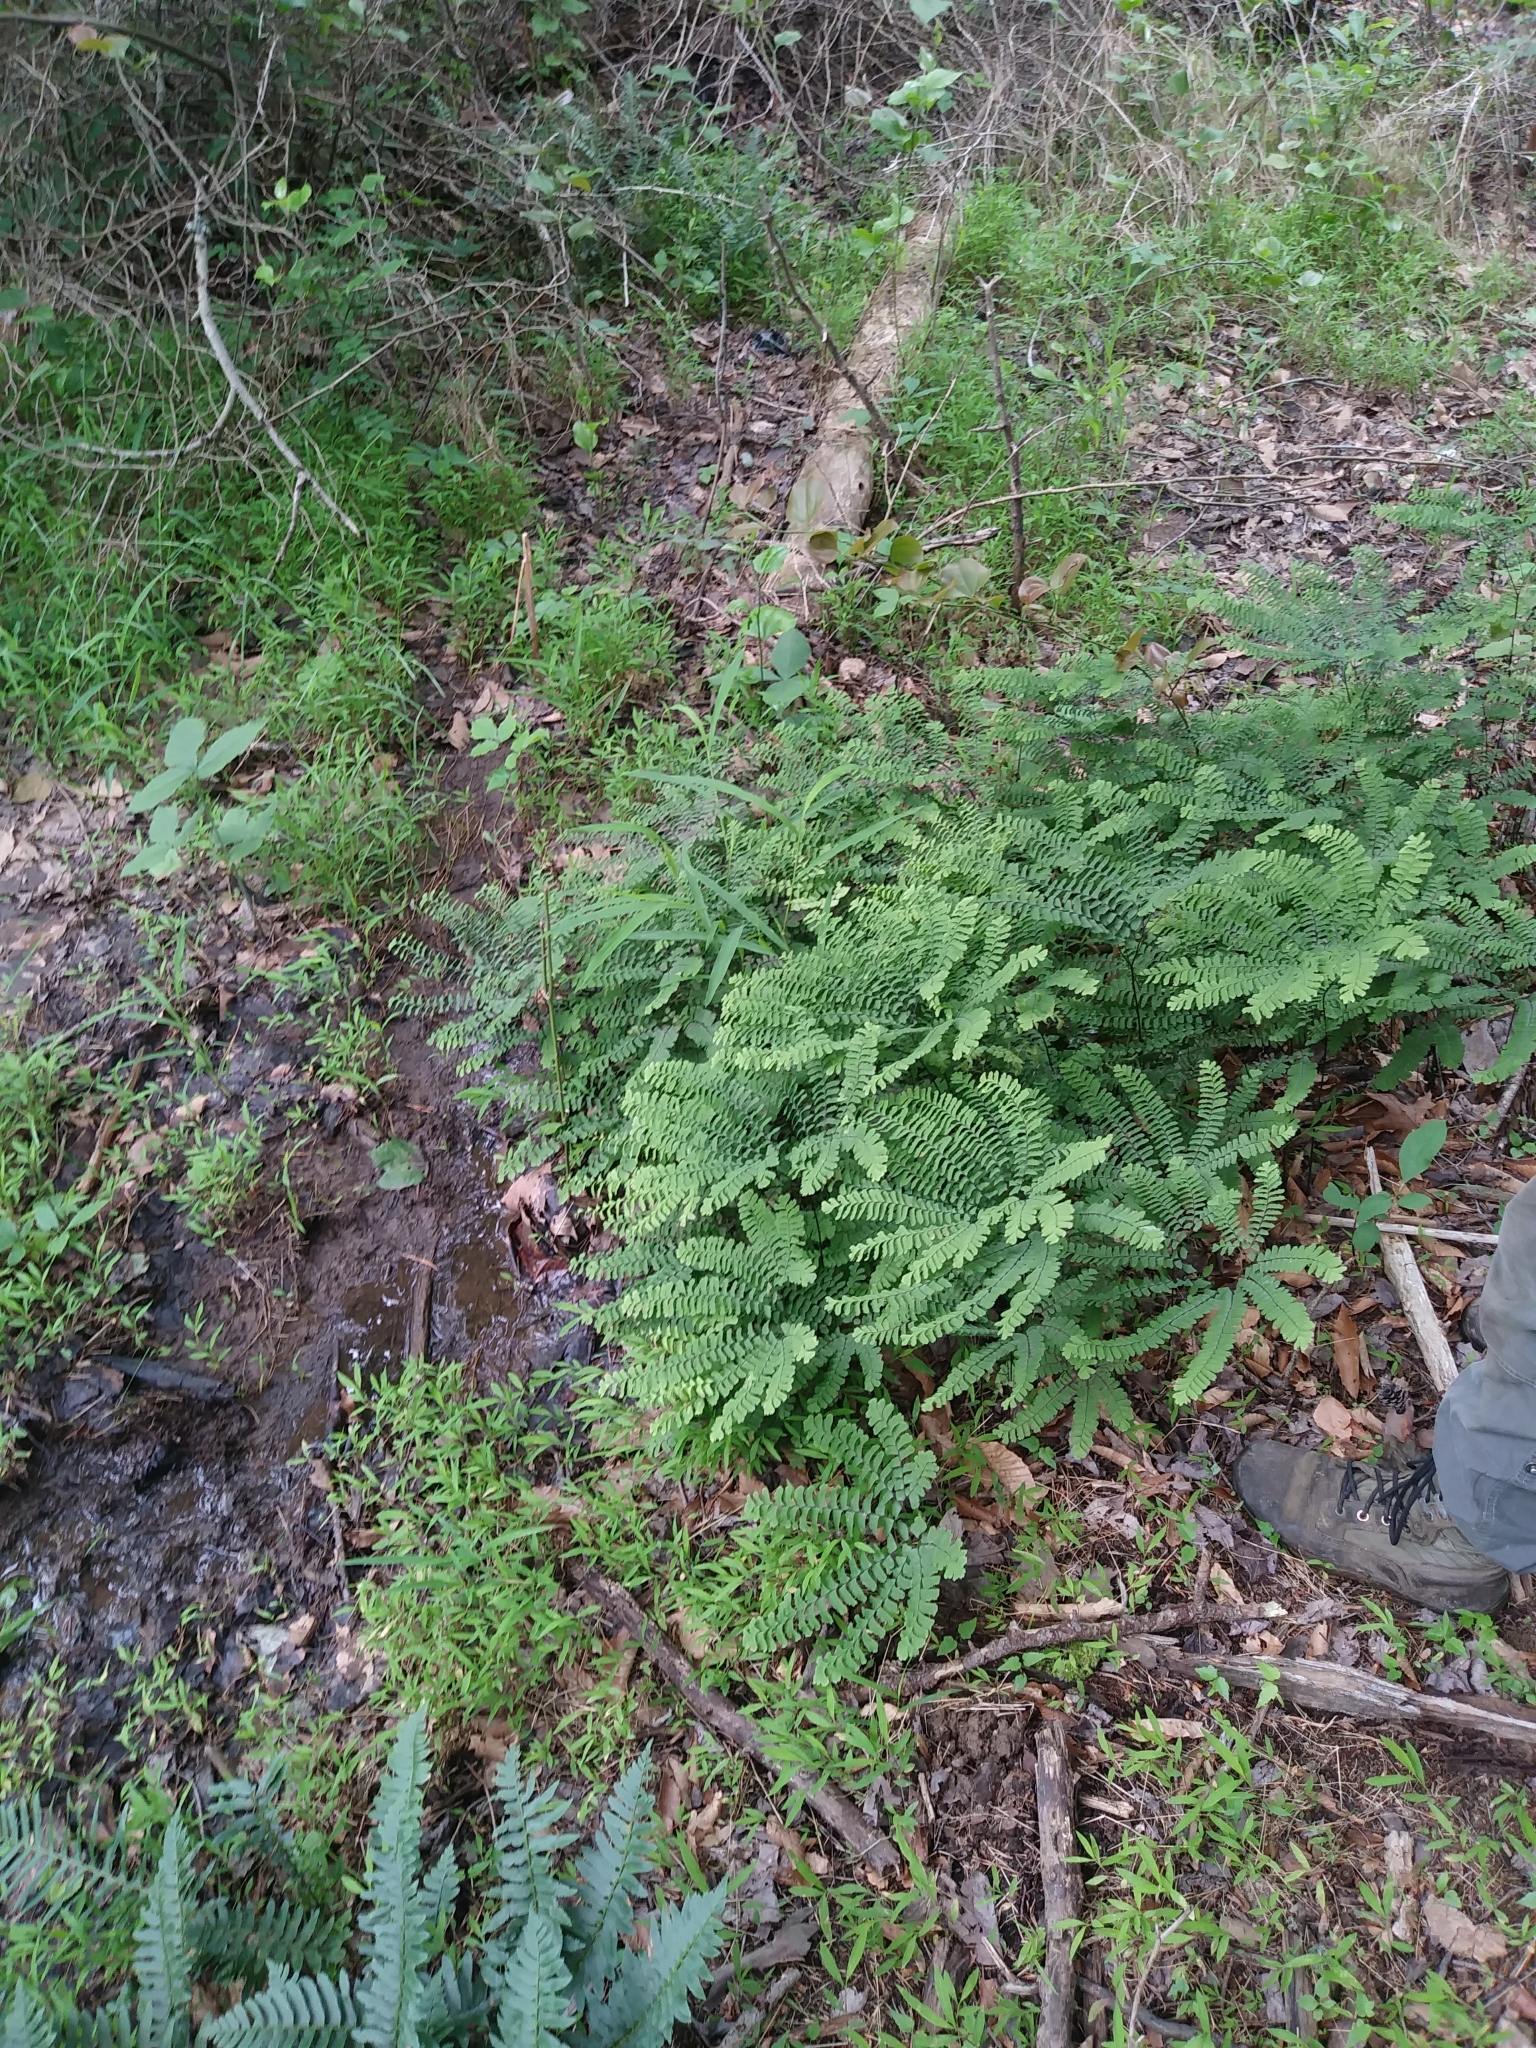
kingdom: Plantae
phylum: Tracheophyta
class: Polypodiopsida
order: Polypodiales
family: Pteridaceae
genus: Adiantum
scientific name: Adiantum pedatum
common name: Five-finger fern
